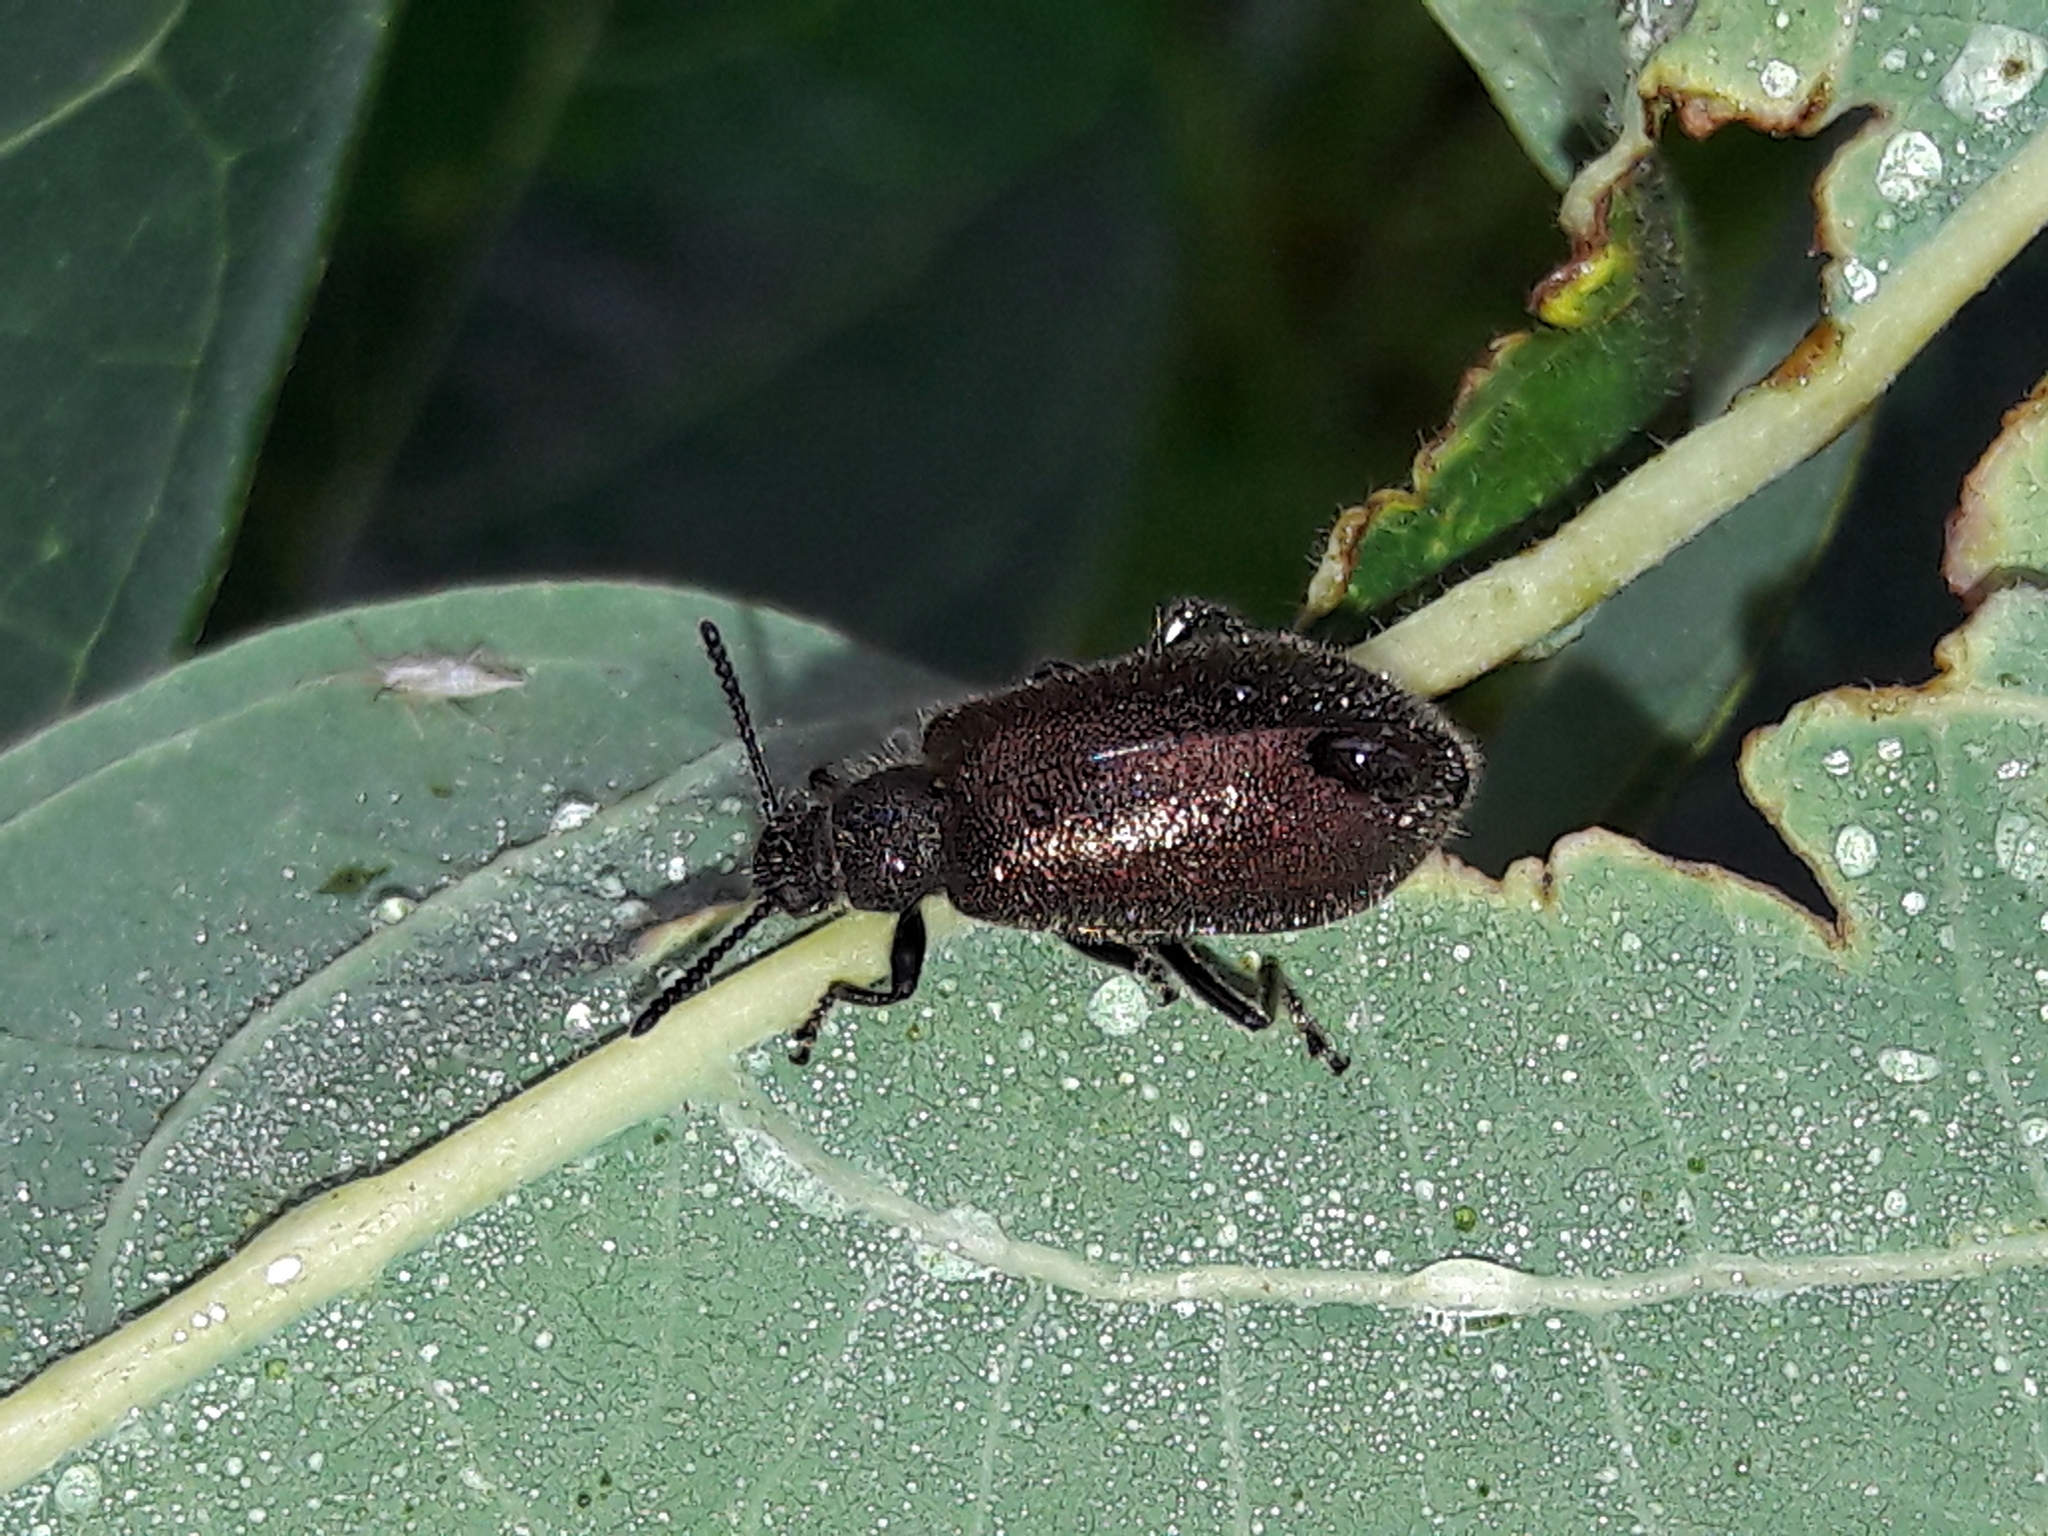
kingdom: Animalia
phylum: Arthropoda
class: Insecta
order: Coleoptera
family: Tenebrionidae
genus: Lagria
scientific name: Lagria villosa
